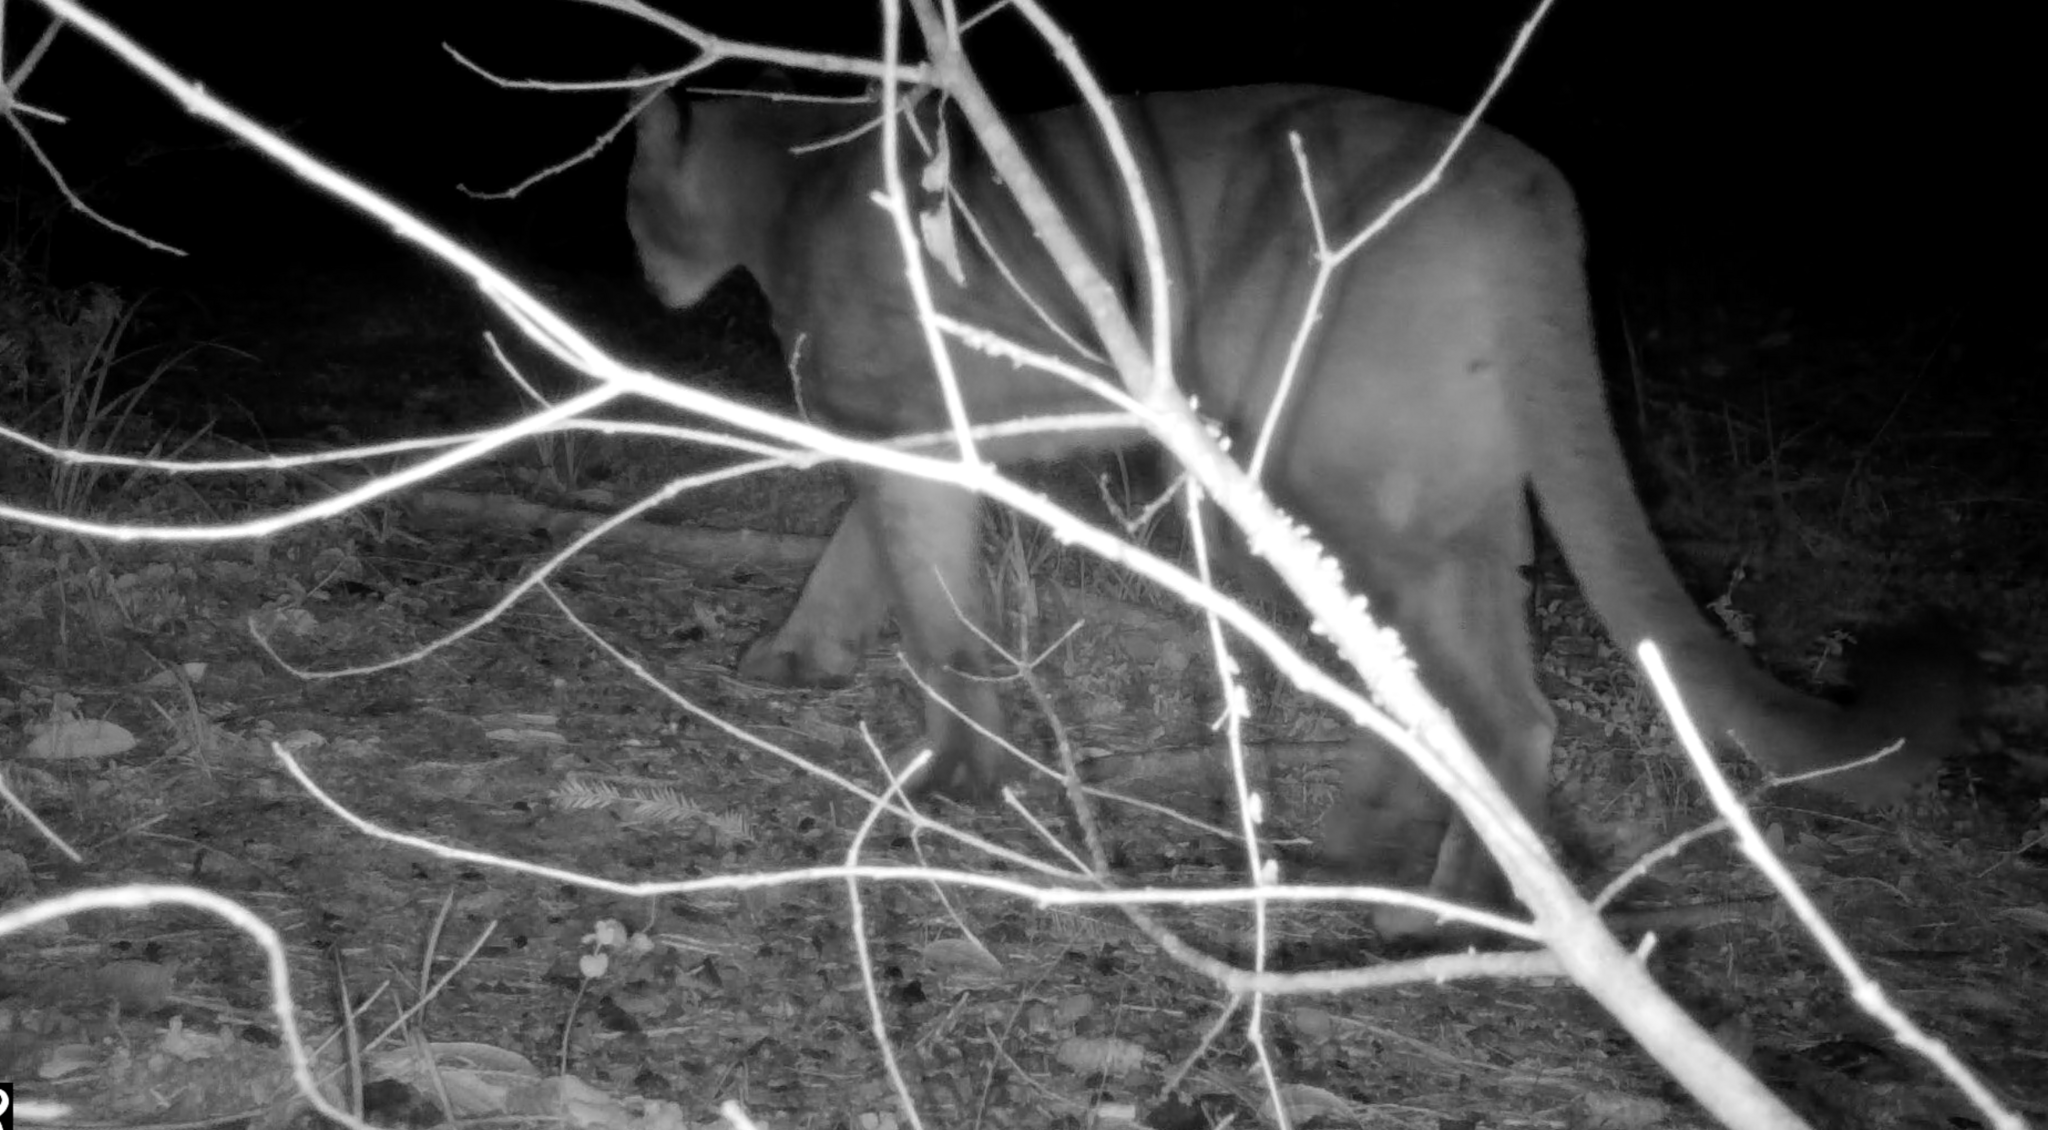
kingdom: Animalia
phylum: Chordata
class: Mammalia
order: Carnivora
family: Felidae
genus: Puma
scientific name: Puma concolor
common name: Puma
